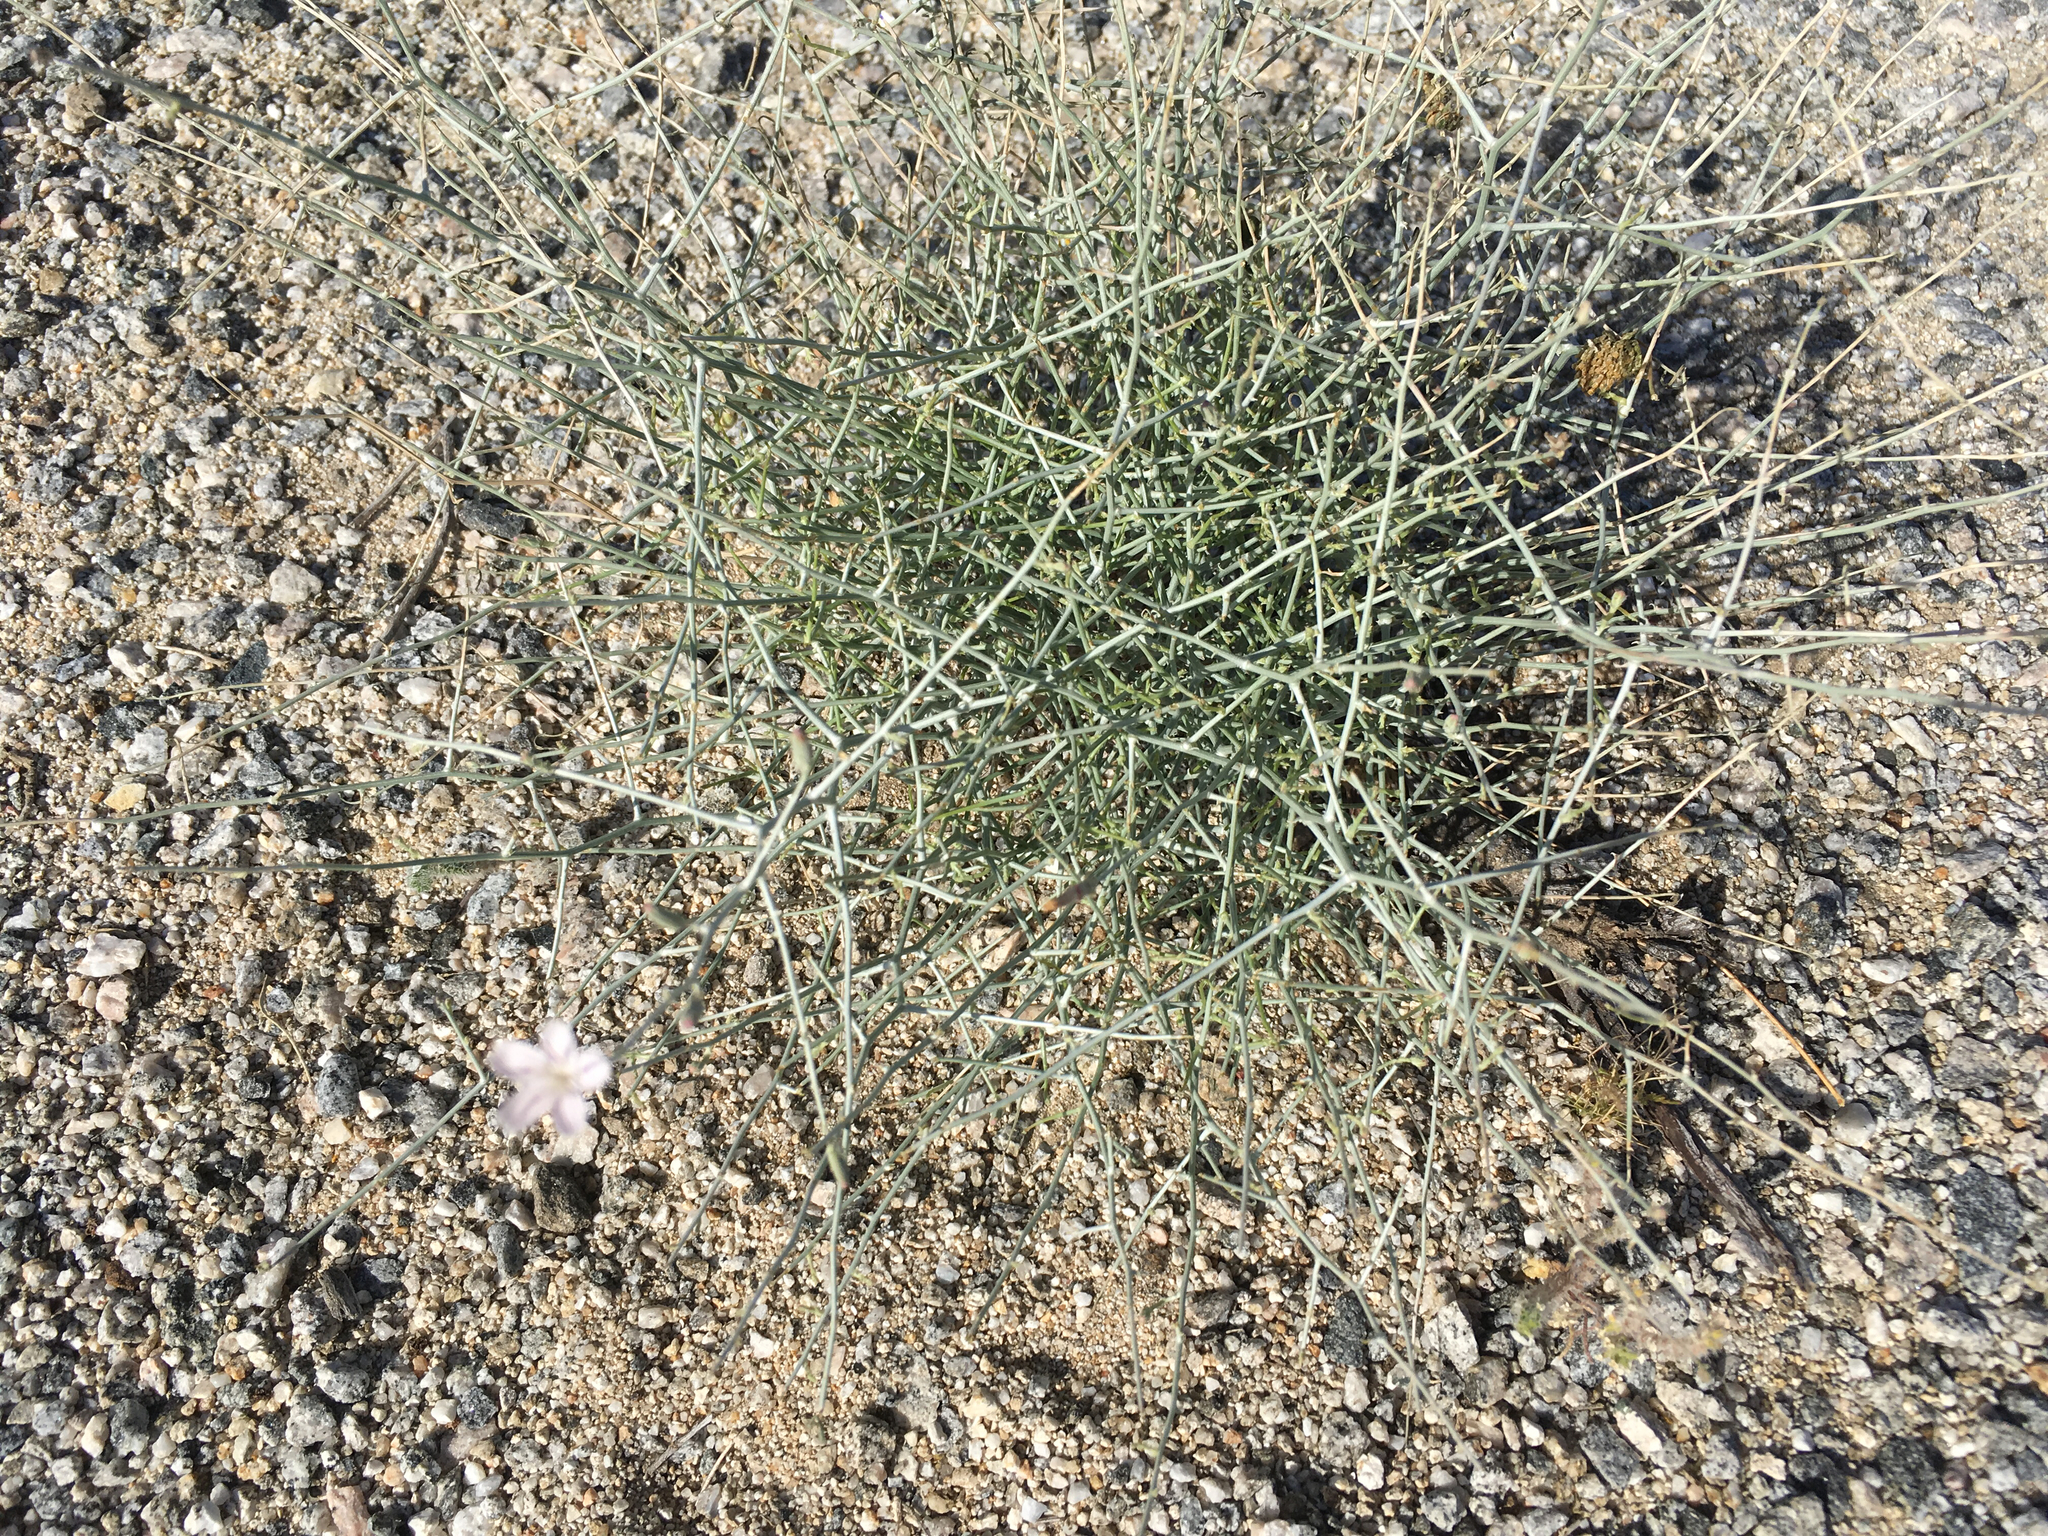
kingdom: Plantae
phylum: Tracheophyta
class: Magnoliopsida
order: Asterales
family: Asteraceae
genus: Stephanomeria
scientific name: Stephanomeria pauciflora
